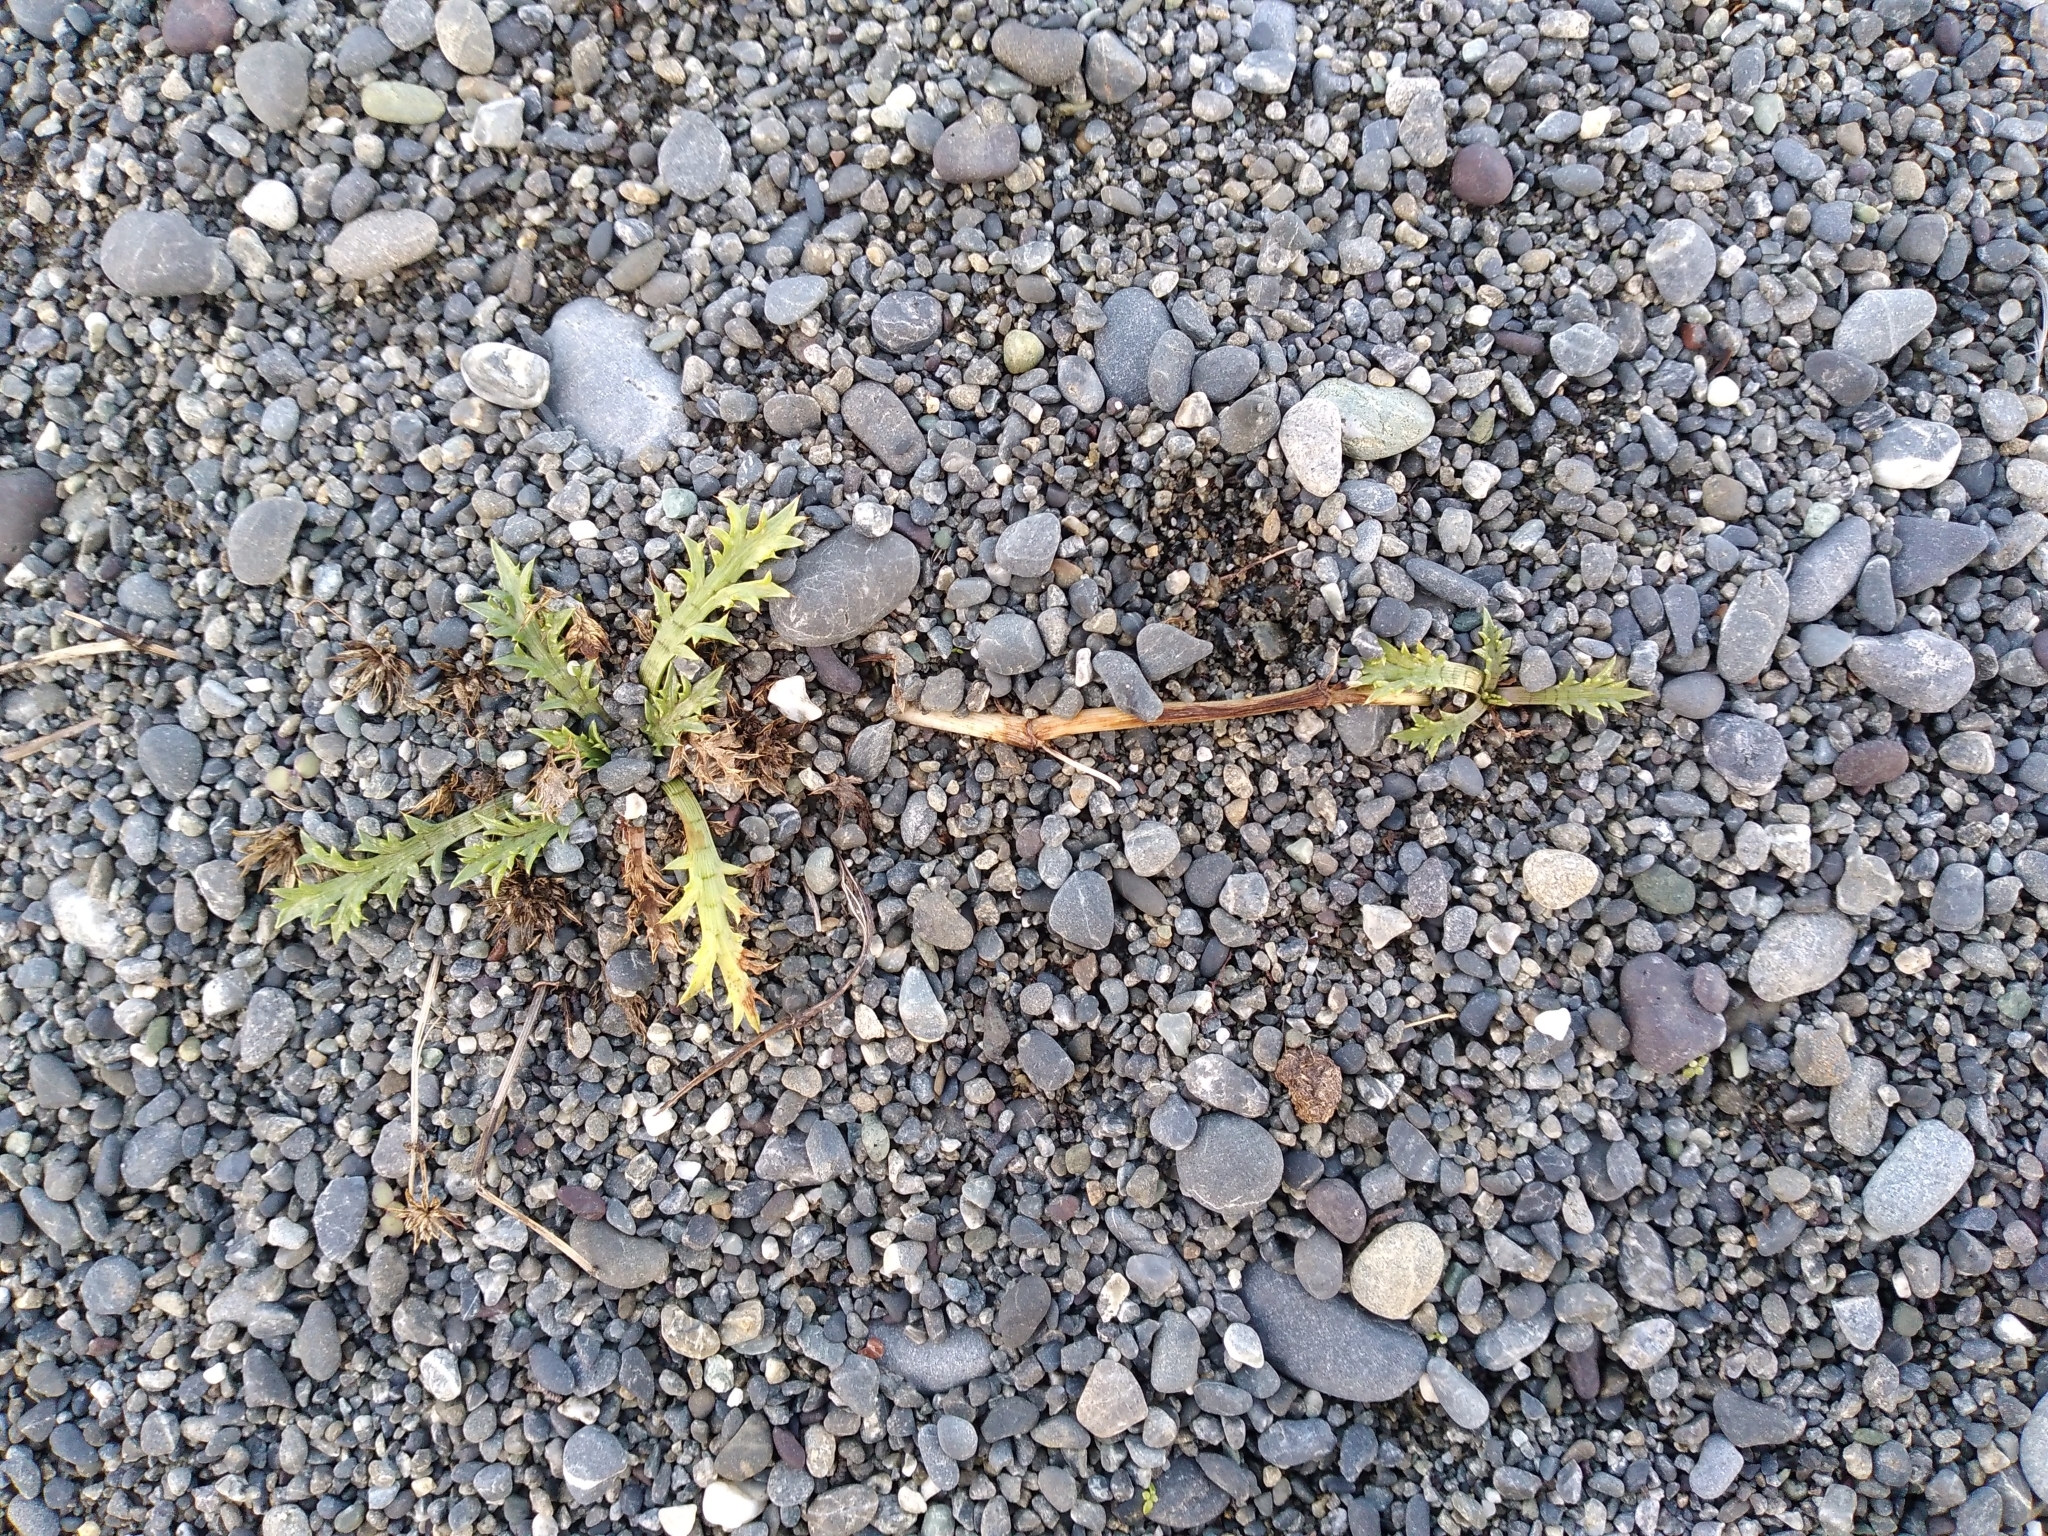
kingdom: Plantae
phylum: Tracheophyta
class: Magnoliopsida
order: Apiales
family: Apiaceae
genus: Eryngium
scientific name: Eryngium vesiculosum
